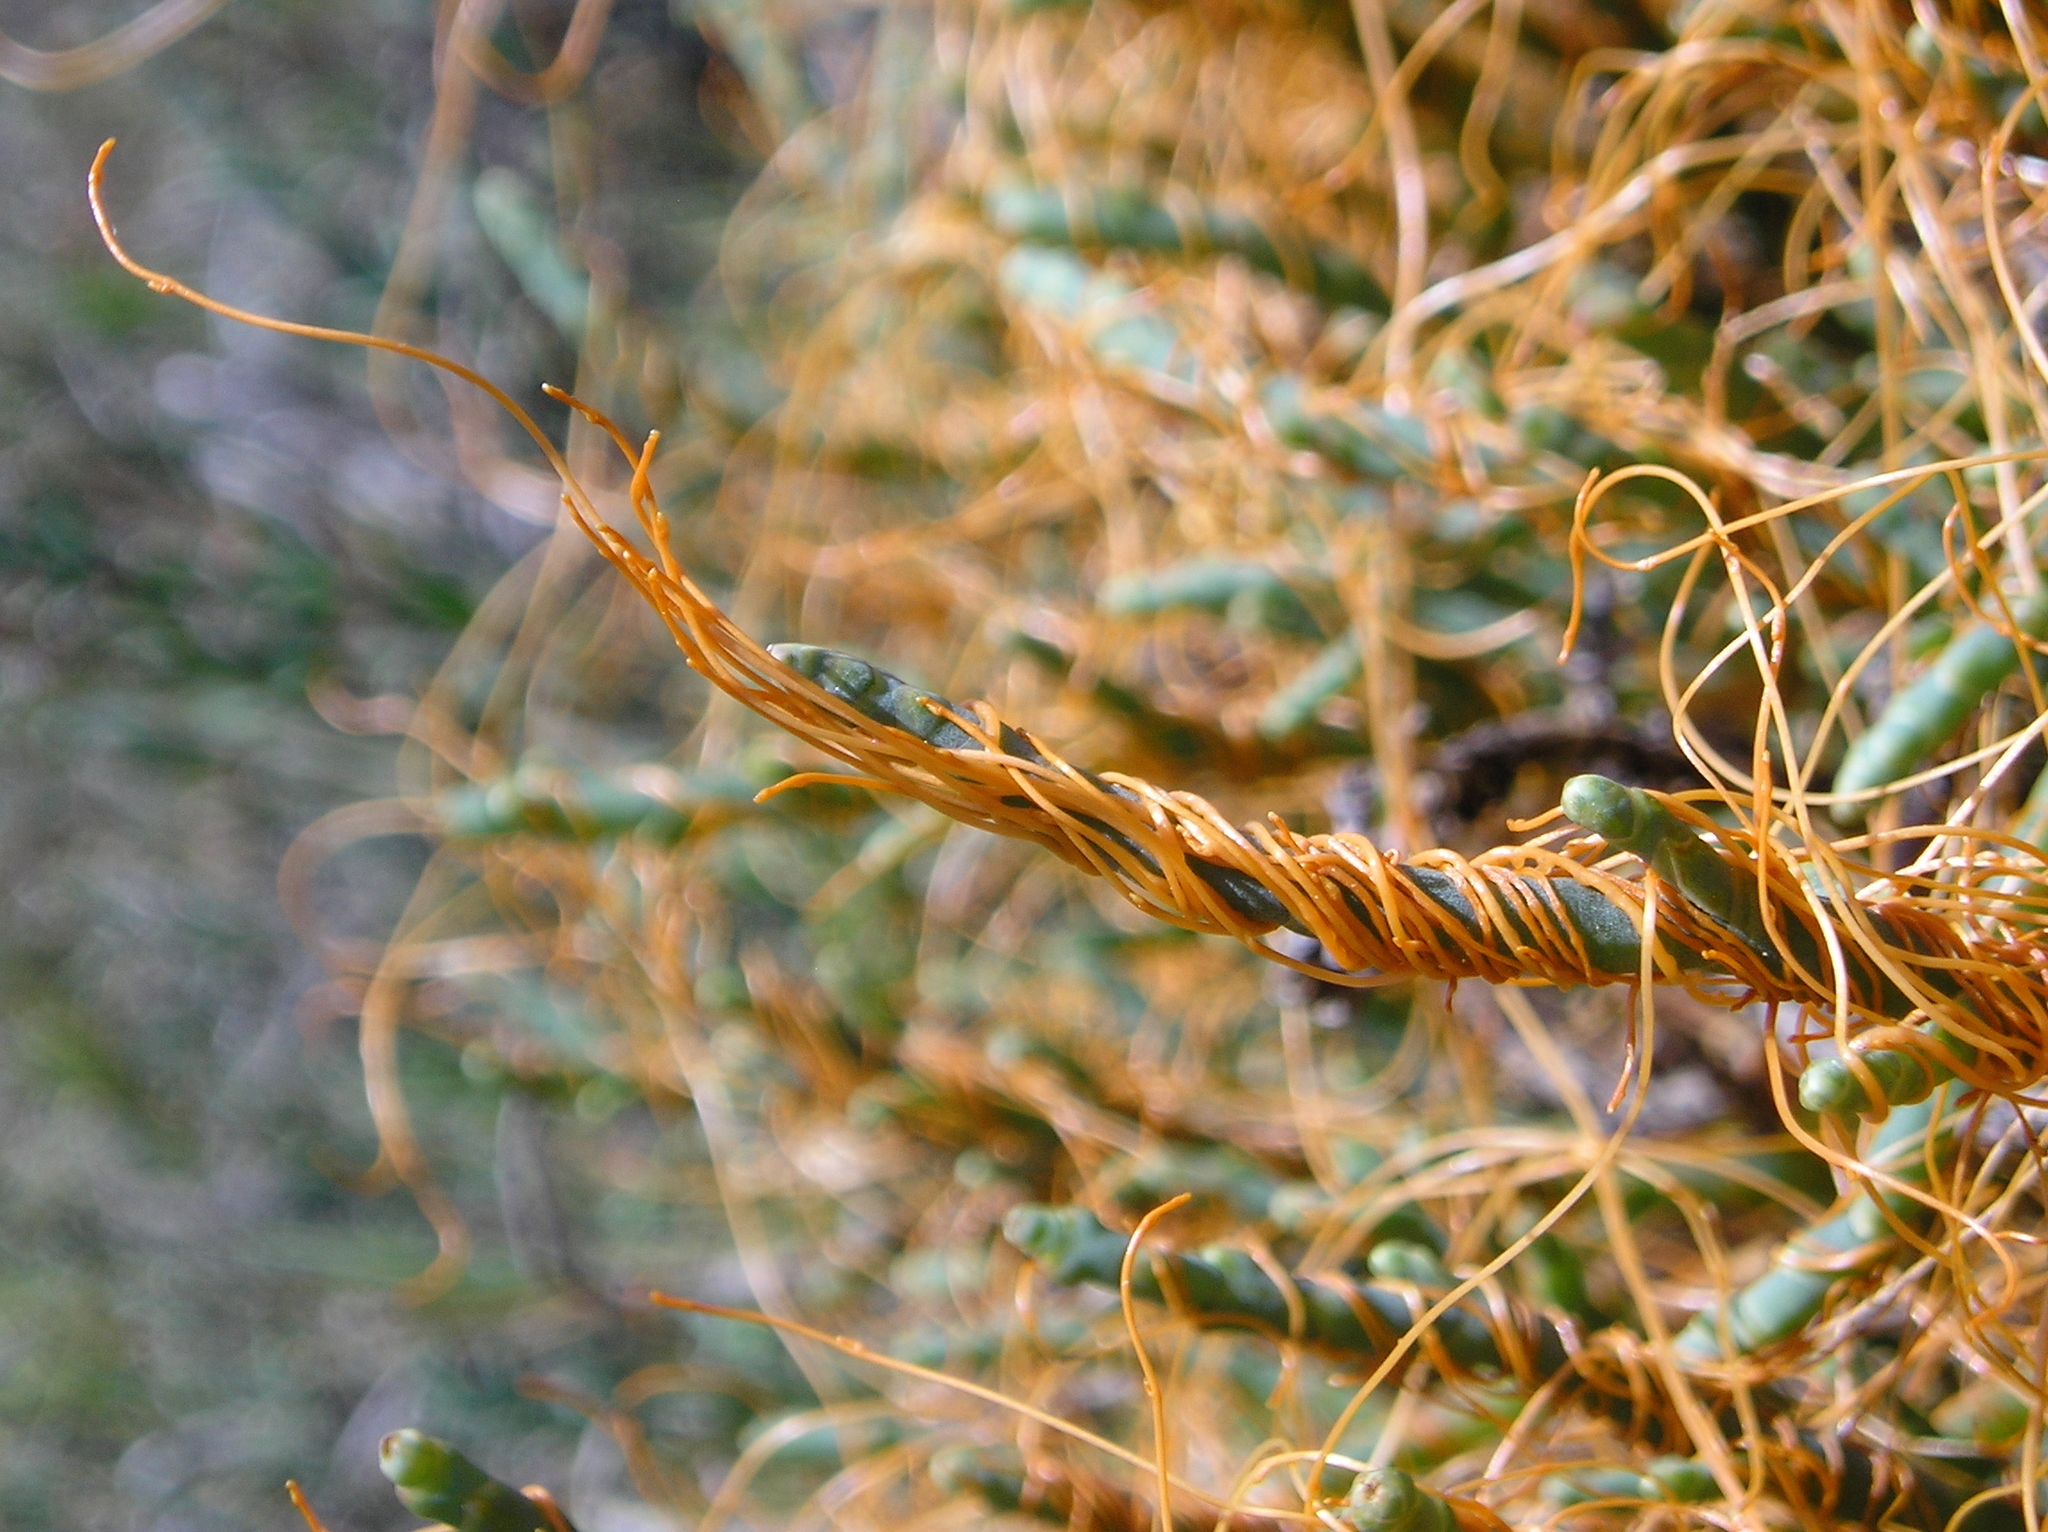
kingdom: Plantae
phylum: Tracheophyta
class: Magnoliopsida
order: Solanales
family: Convolvulaceae
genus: Cuscuta
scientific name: Cuscuta pacifica
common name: Large saltmarsh dodder
